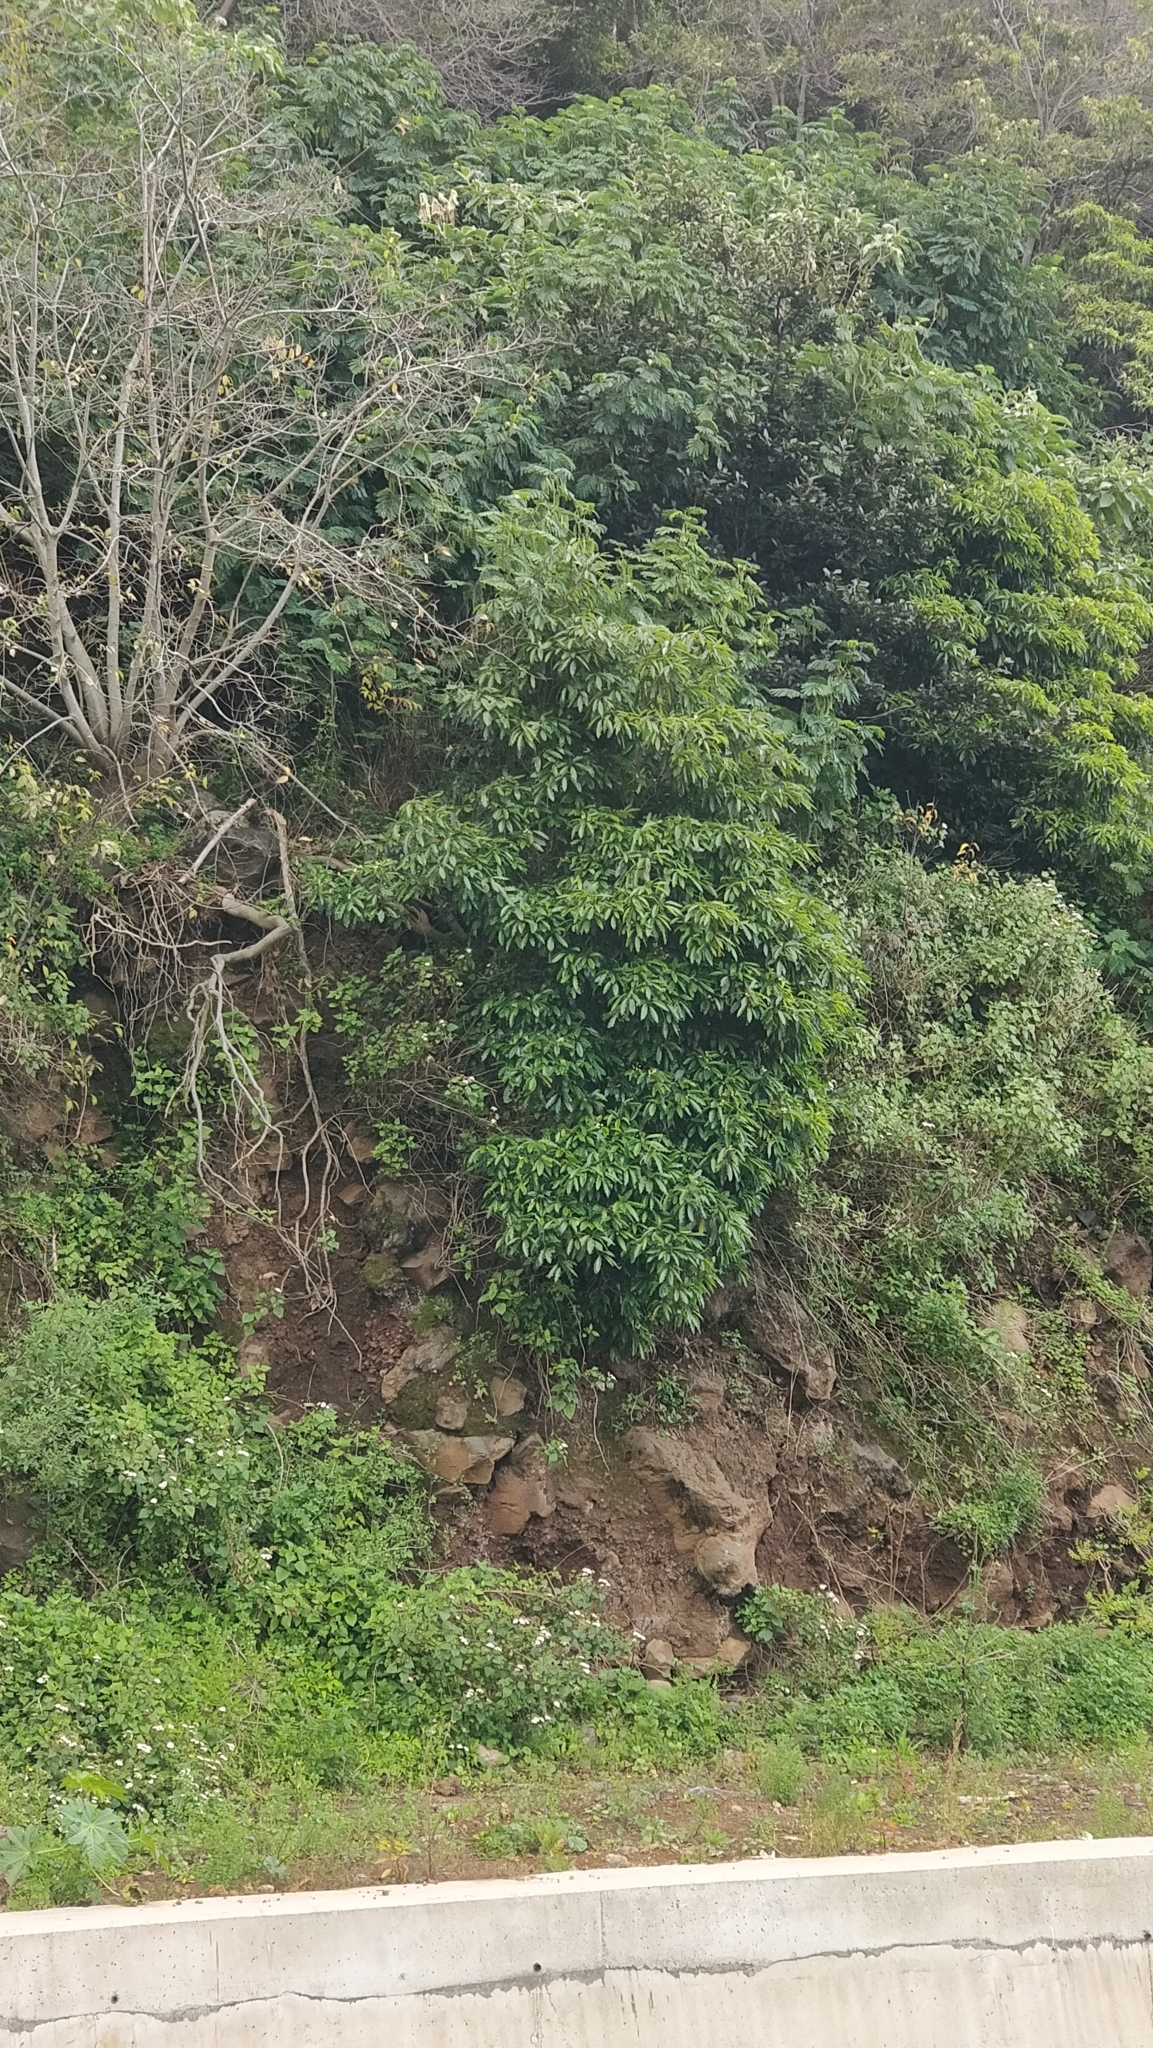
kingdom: Plantae
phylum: Tracheophyta
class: Magnoliopsida
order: Apiales
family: Pittosporaceae
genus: Pittosporum
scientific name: Pittosporum undulatum
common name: Australian cheesewood
